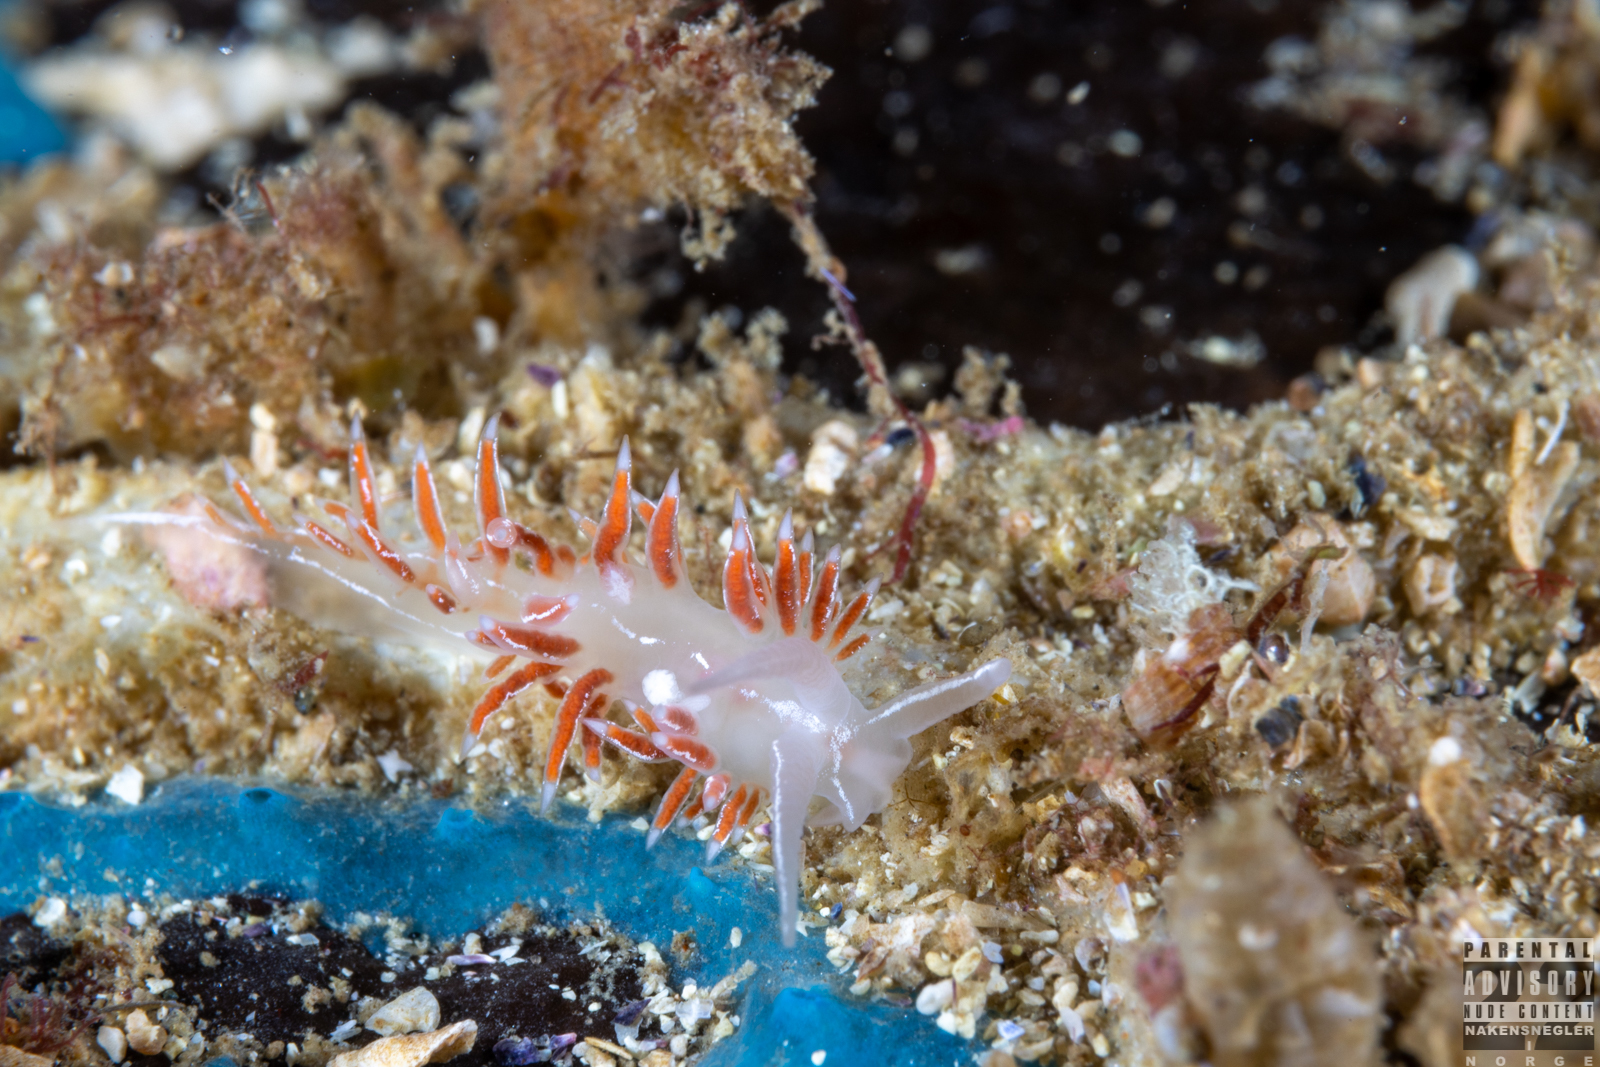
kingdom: Animalia
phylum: Mollusca
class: Gastropoda
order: Nudibranchia
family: Coryphellidae
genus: Coryphella
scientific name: Coryphella chriskaugei
